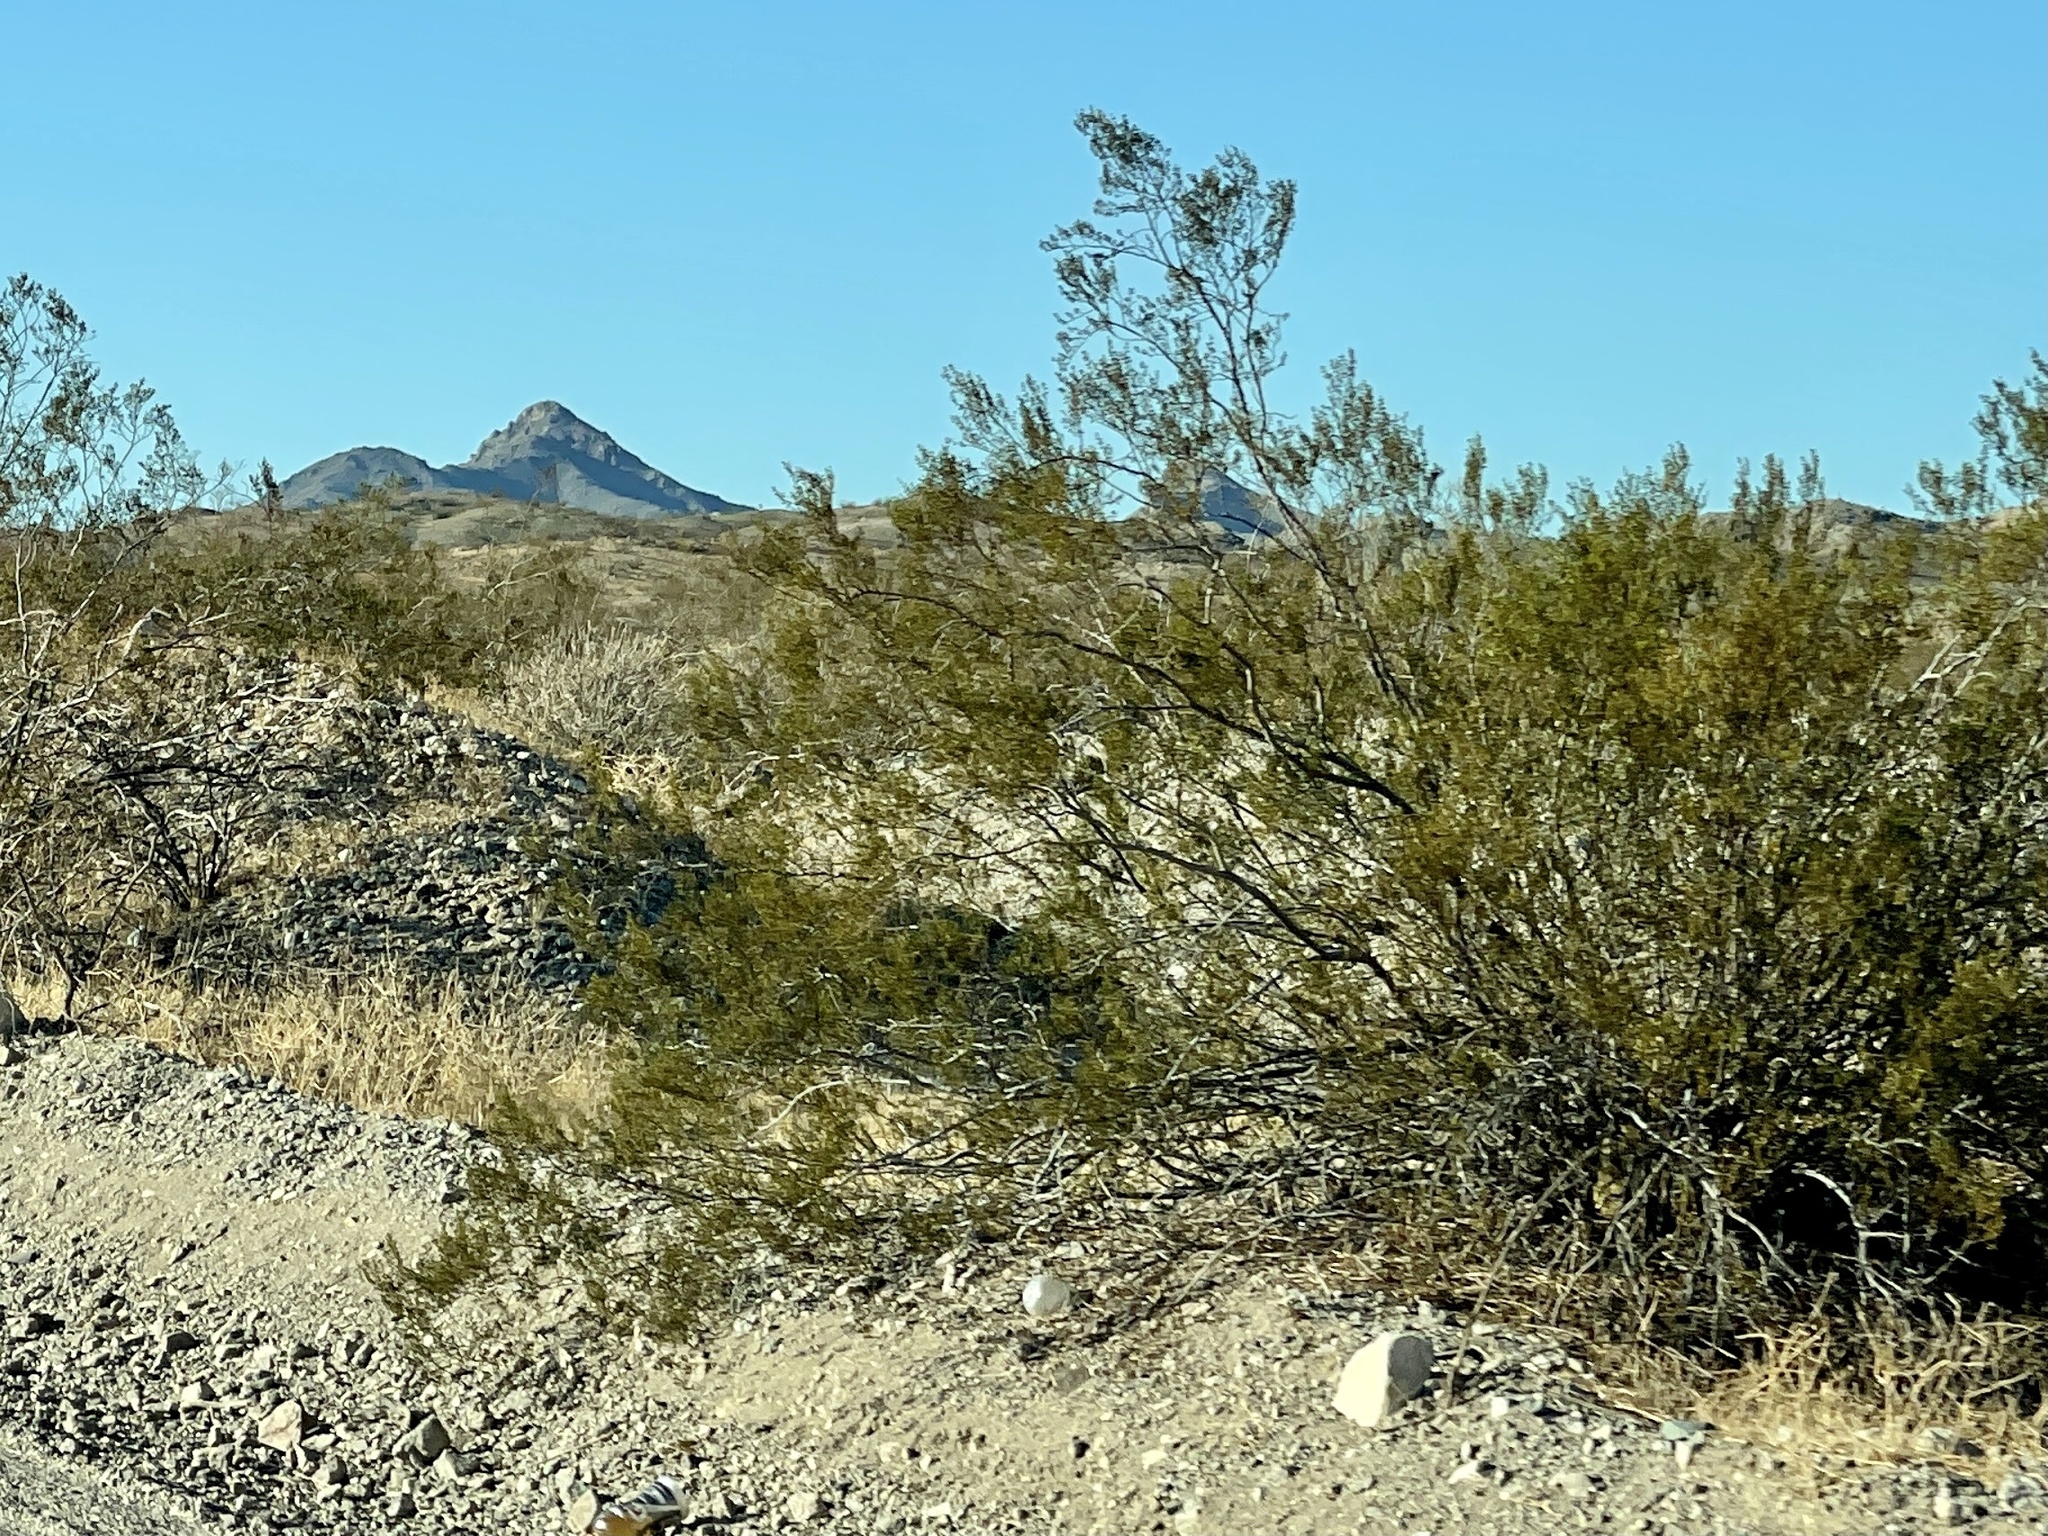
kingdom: Plantae
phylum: Tracheophyta
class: Magnoliopsida
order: Zygophyllales
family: Zygophyllaceae
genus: Larrea
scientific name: Larrea tridentata
